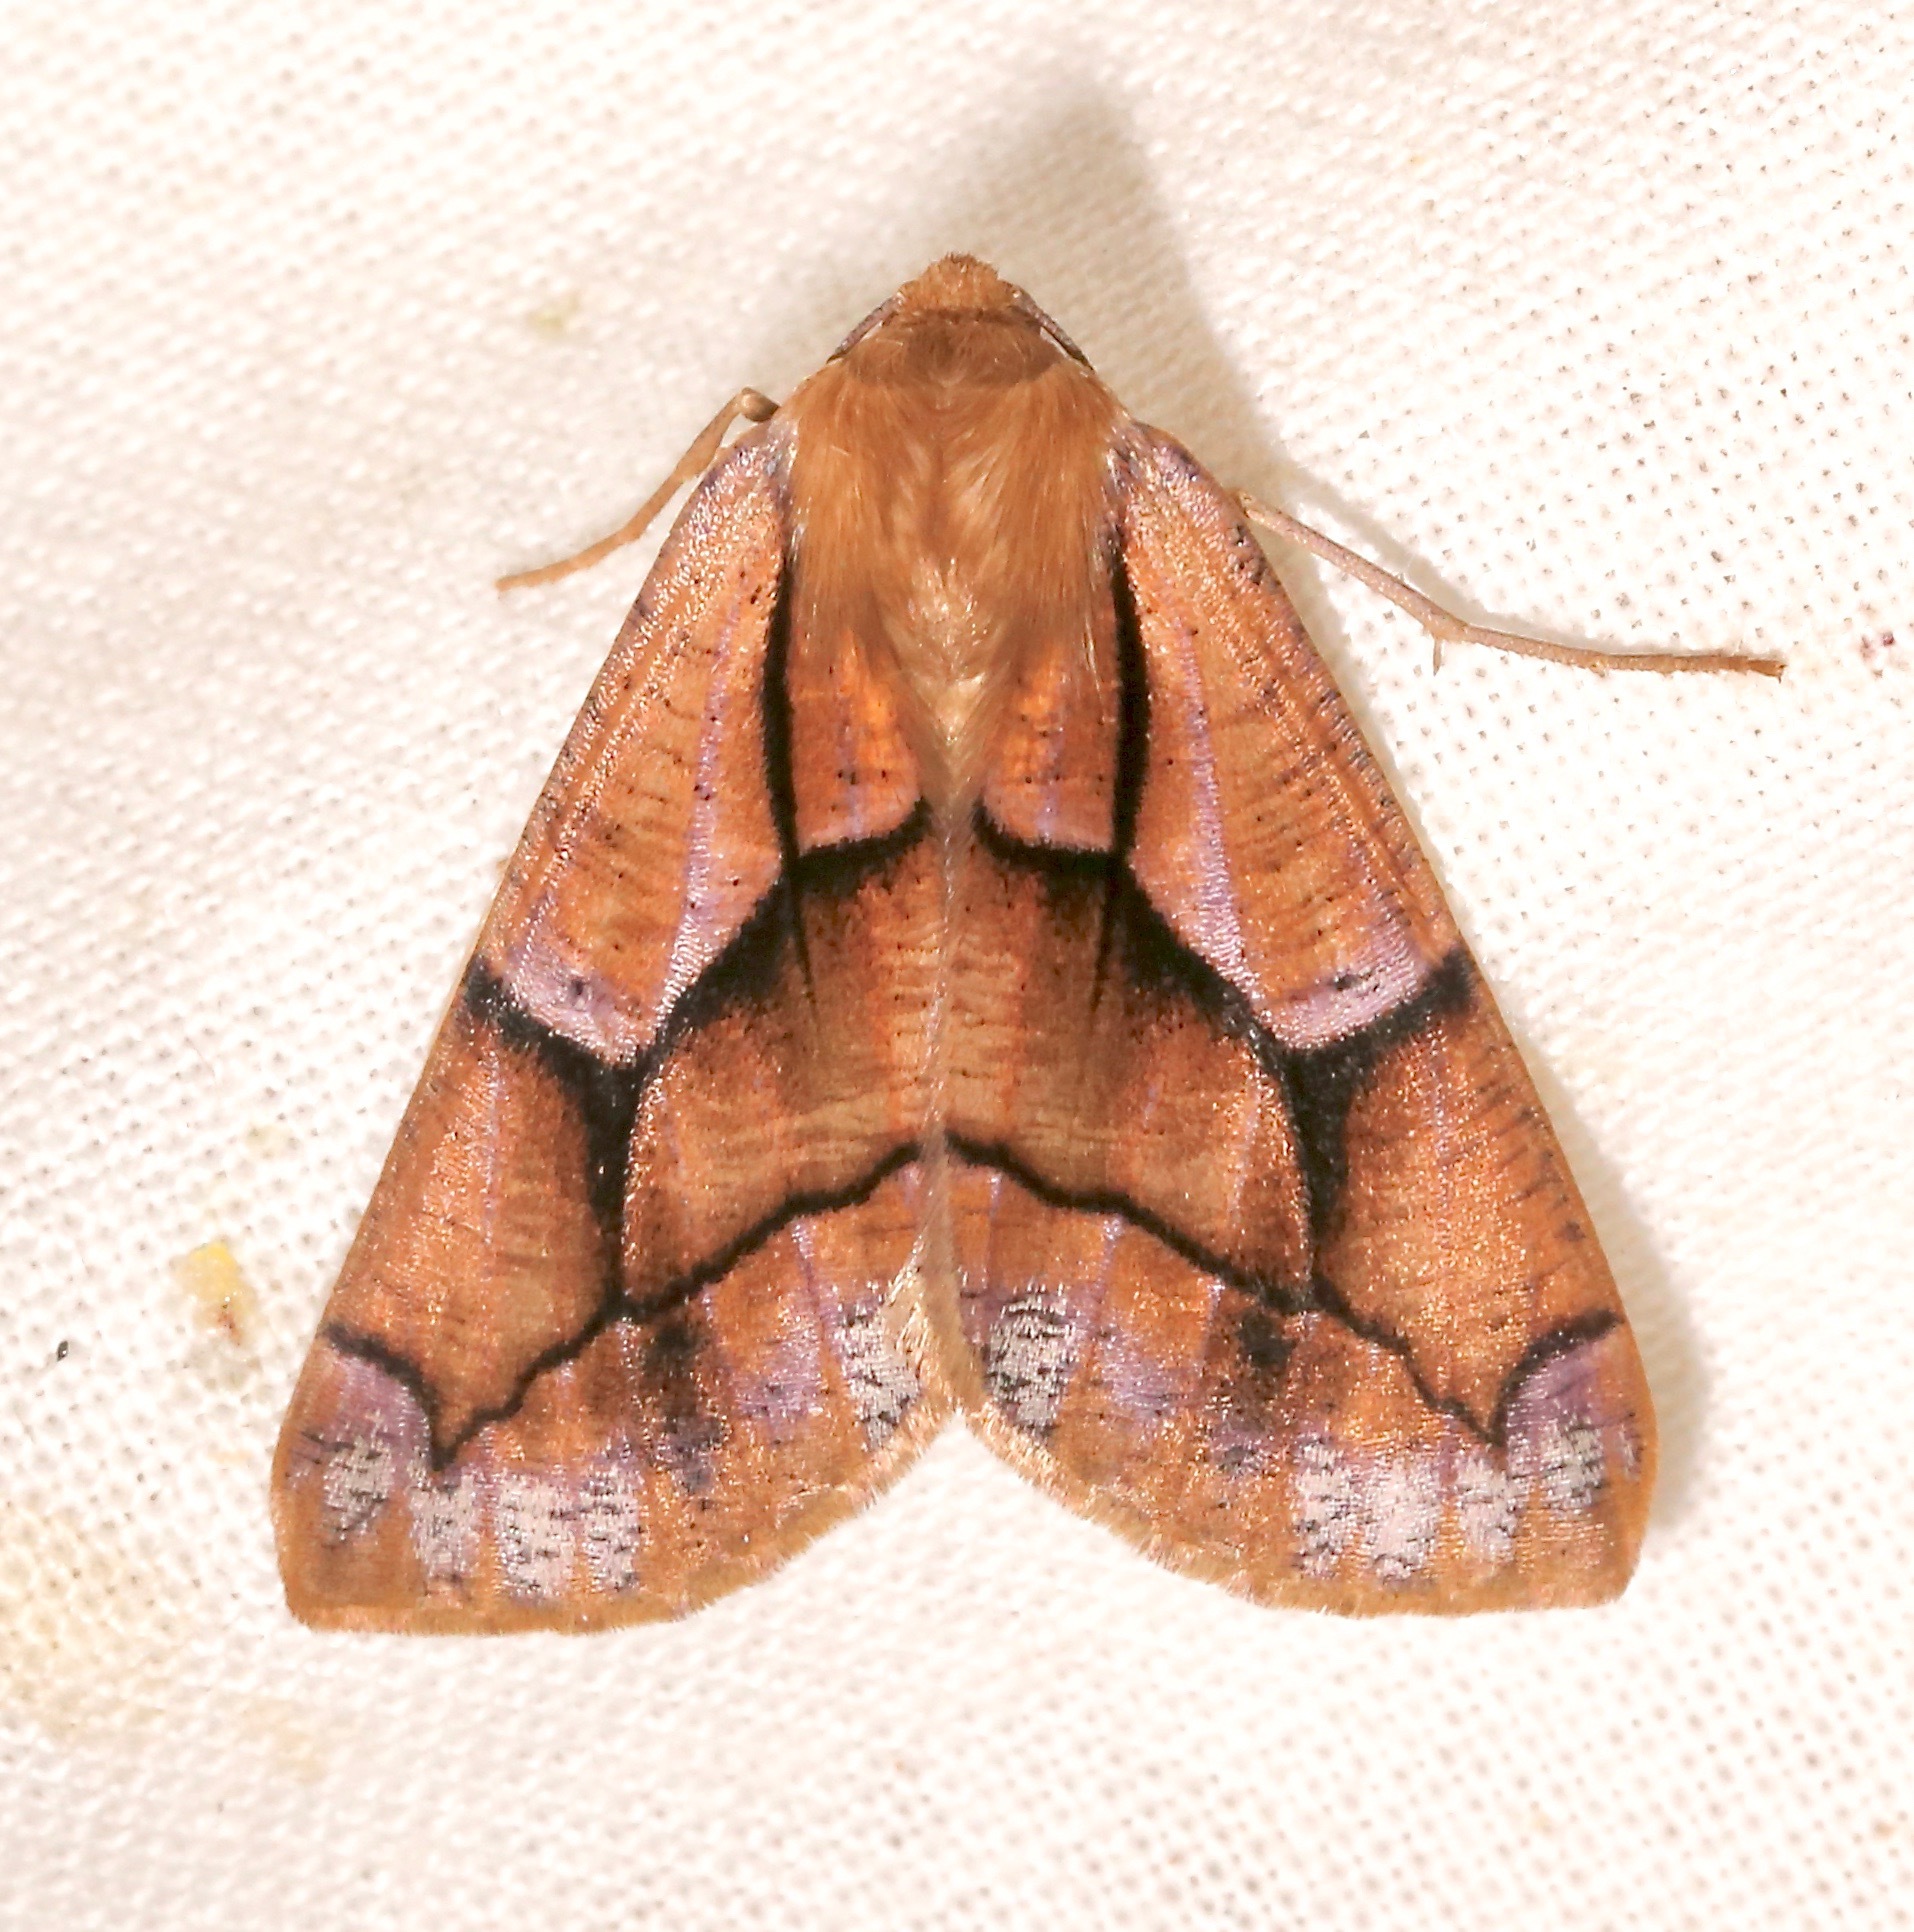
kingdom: Animalia
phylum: Arthropoda
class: Insecta
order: Lepidoptera
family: Geometridae
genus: Snowia
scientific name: Snowia montanaria
